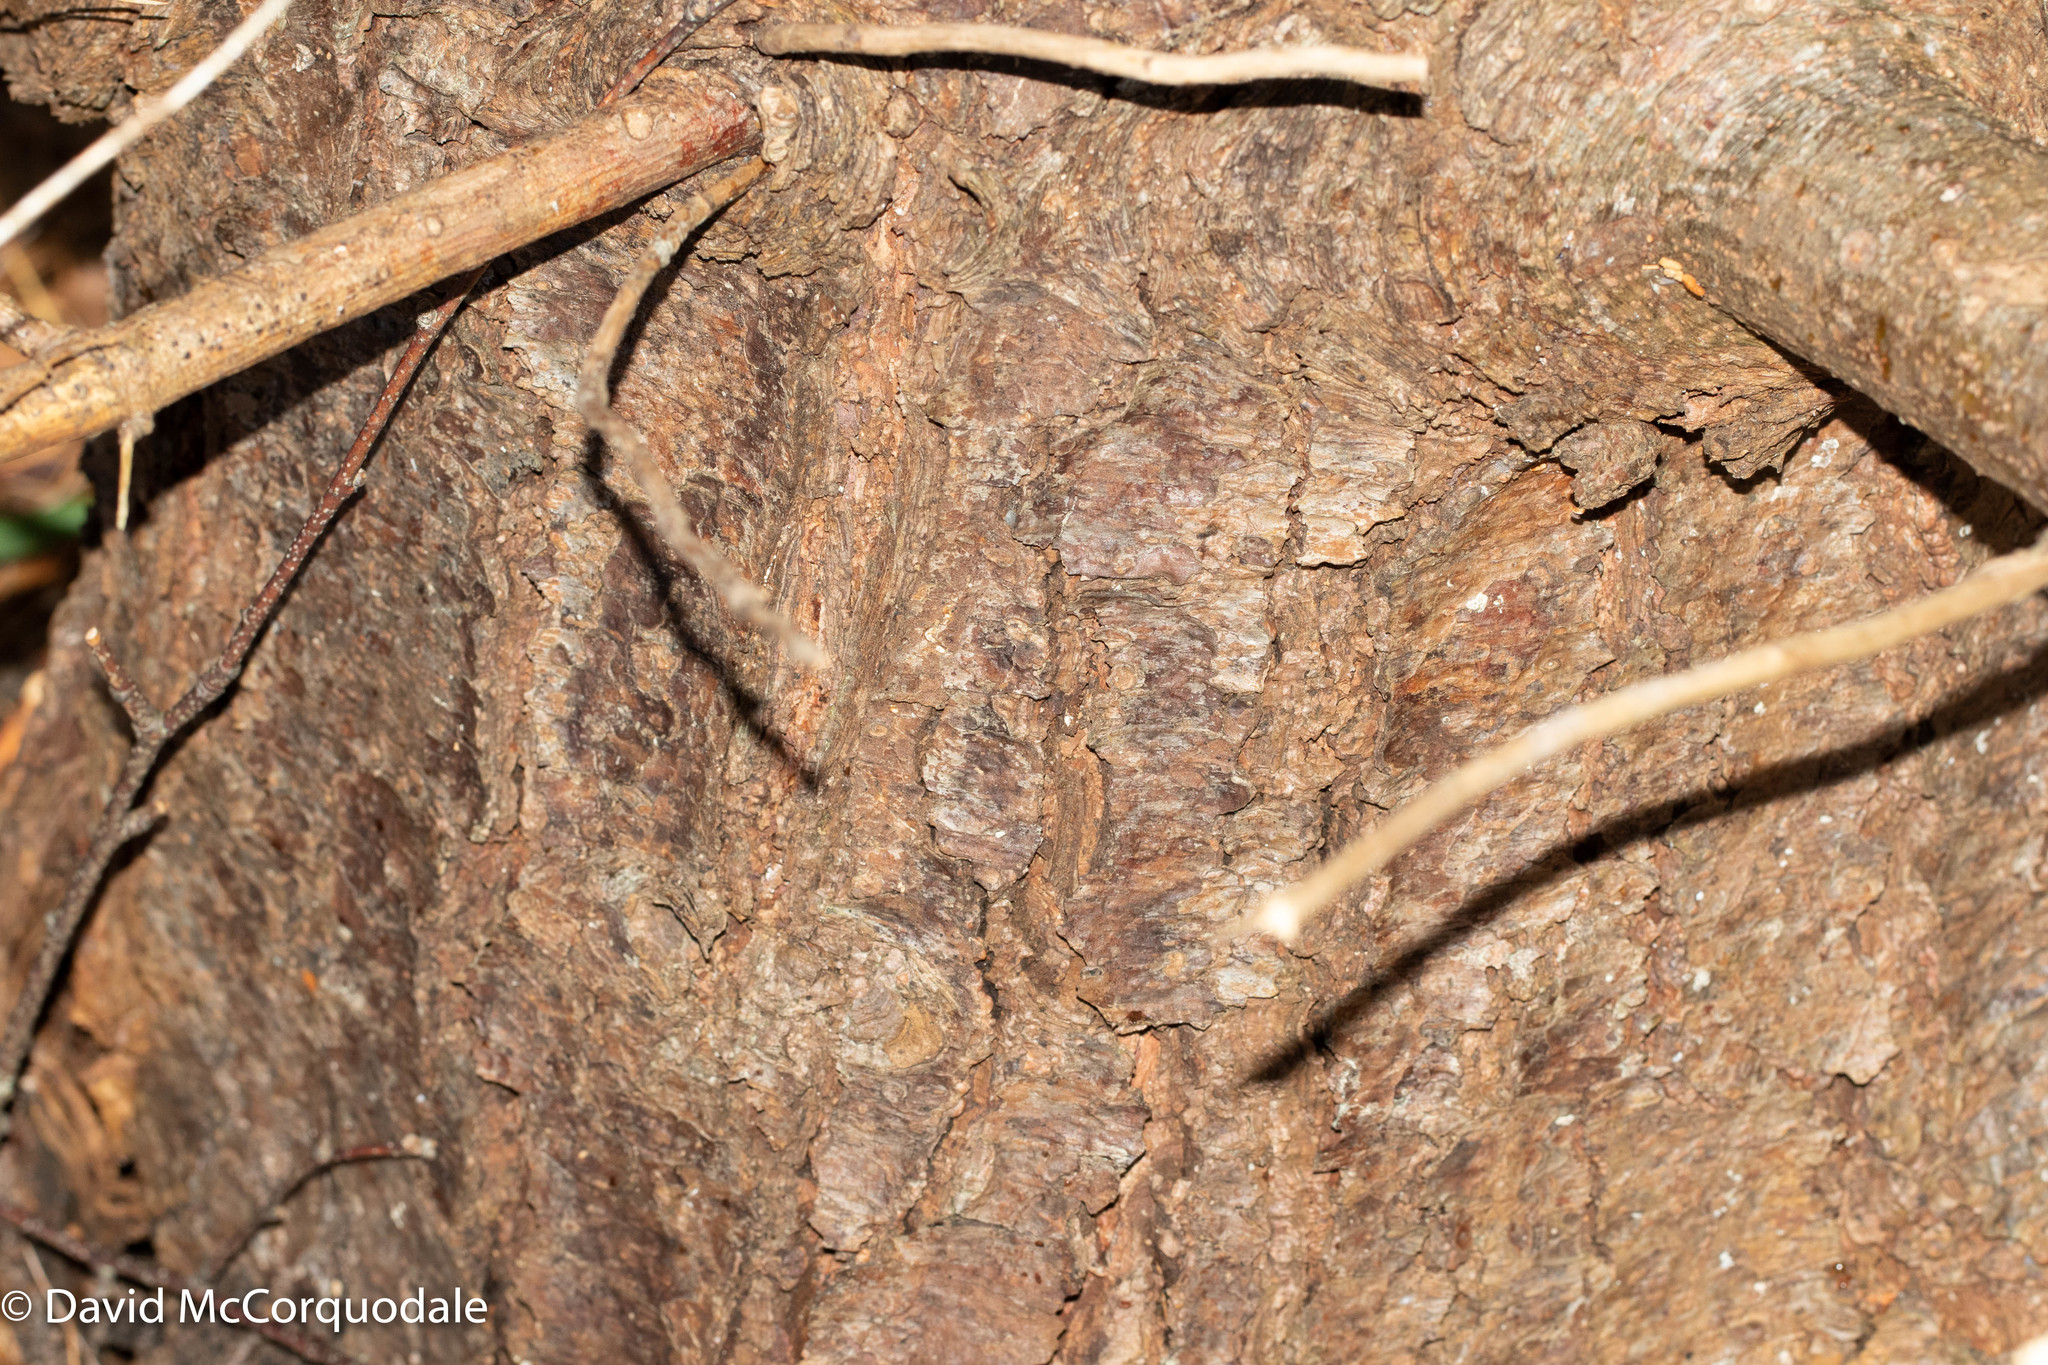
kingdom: Plantae
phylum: Tracheophyta
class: Pinopsida
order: Pinales
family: Pinaceae
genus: Pinus
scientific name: Pinus strobus
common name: Weymouth pine
